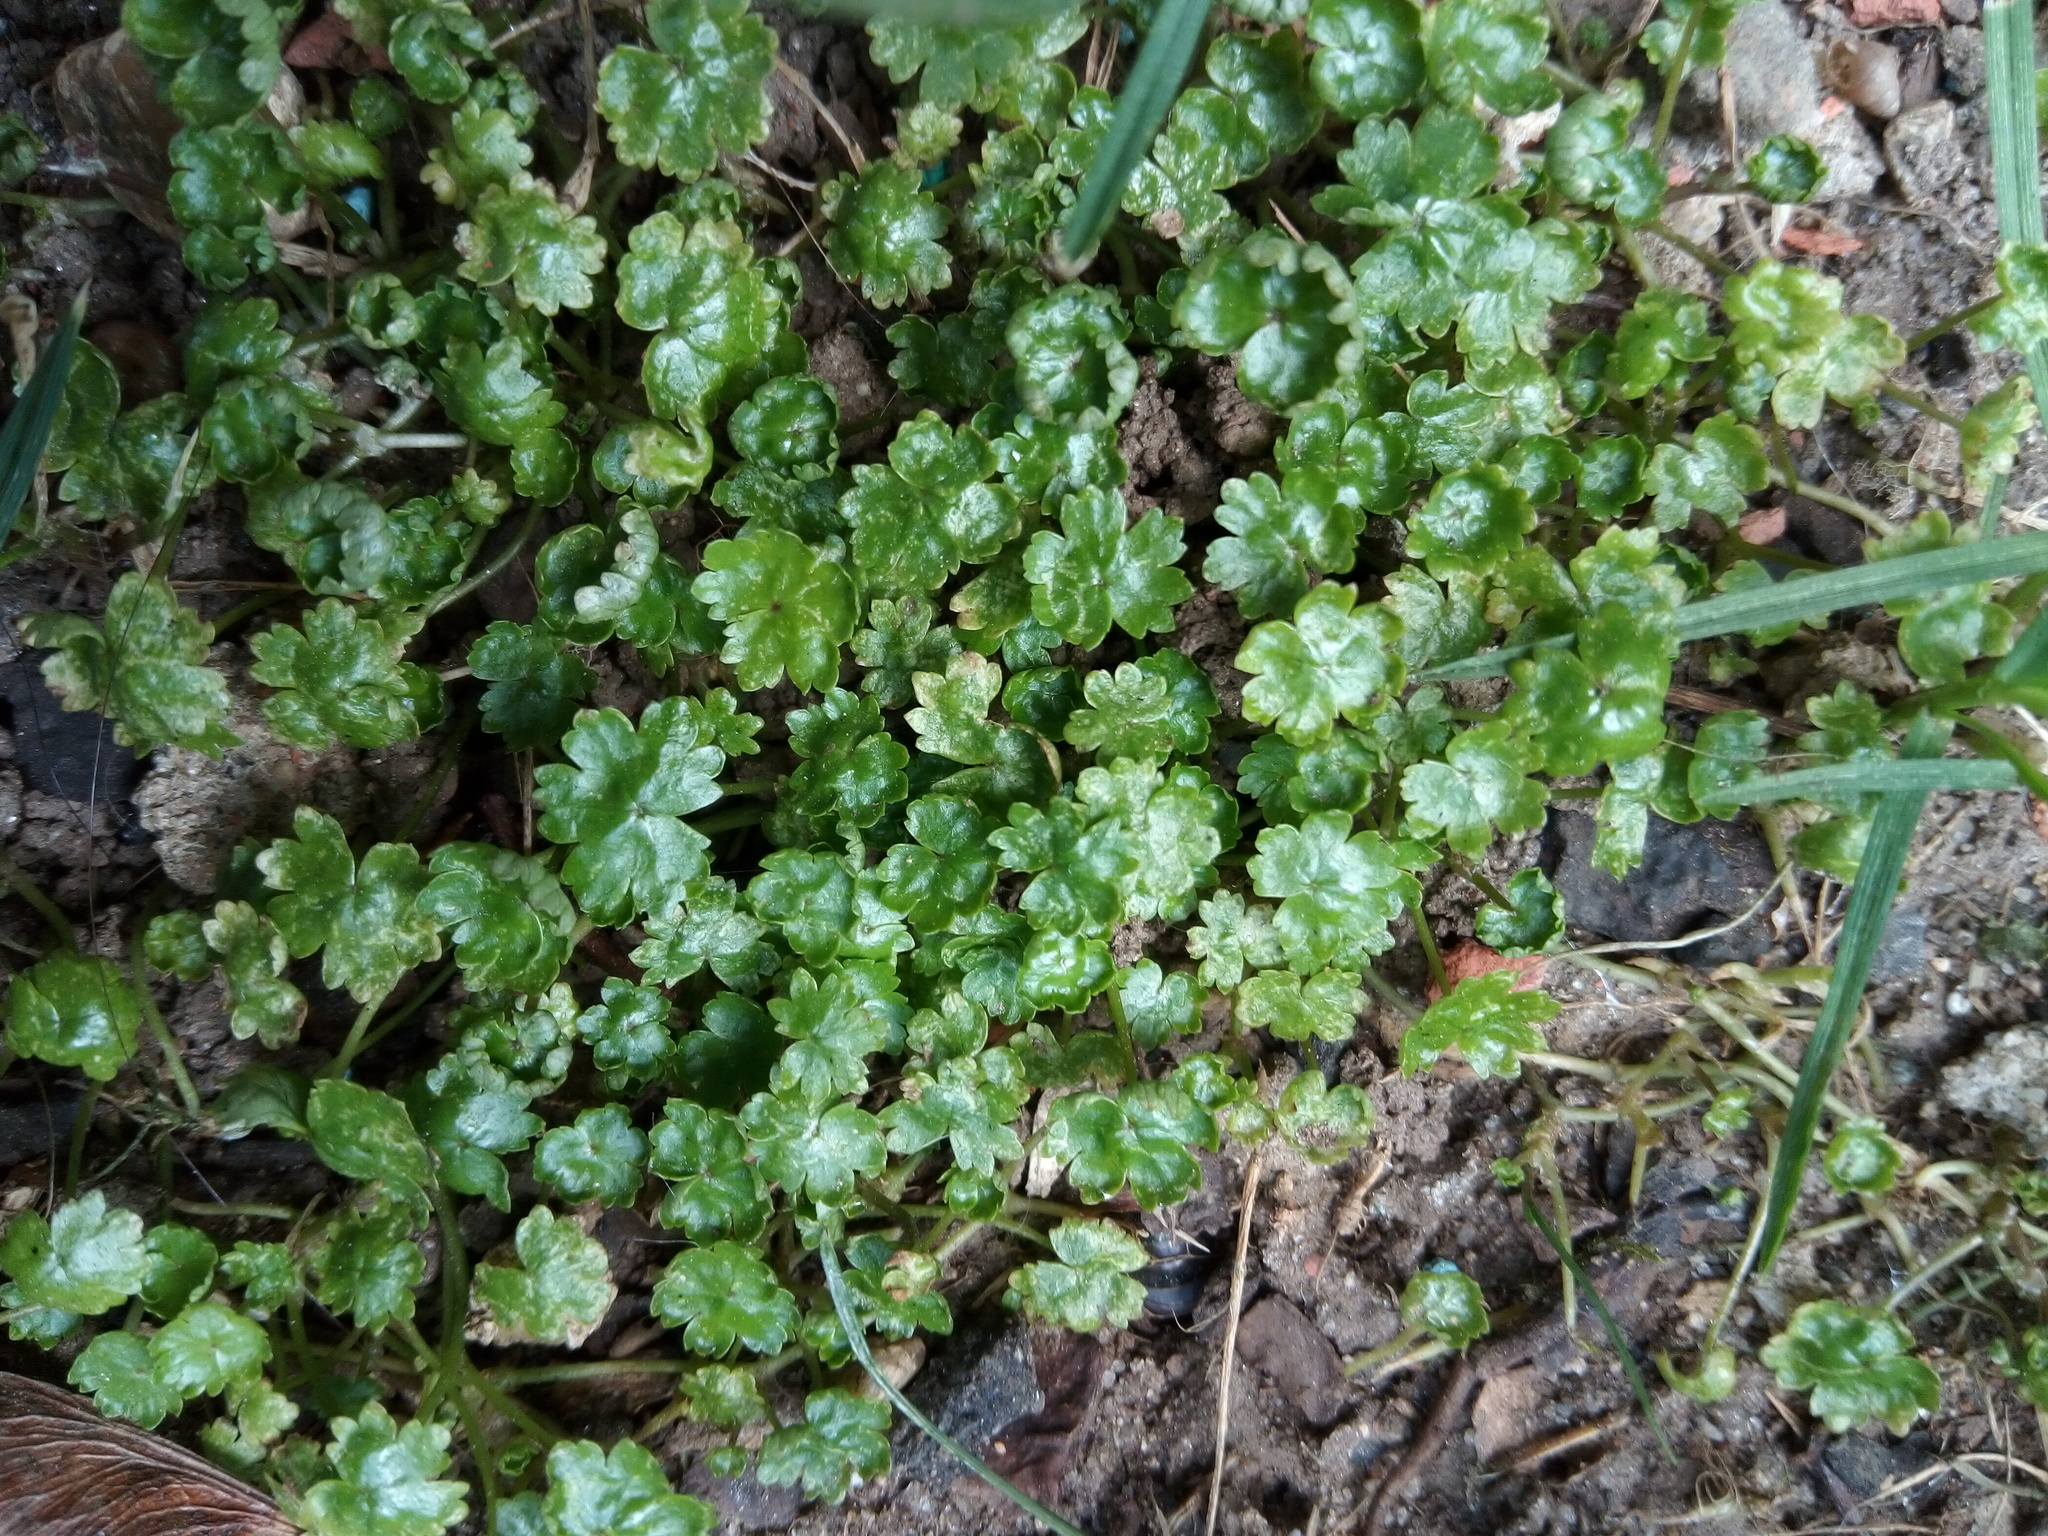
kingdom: Plantae
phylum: Tracheophyta
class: Magnoliopsida
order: Apiales
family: Araliaceae
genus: Hydrocotyle
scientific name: Hydrocotyle sibthorpioides
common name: Lawn marshpennywort
